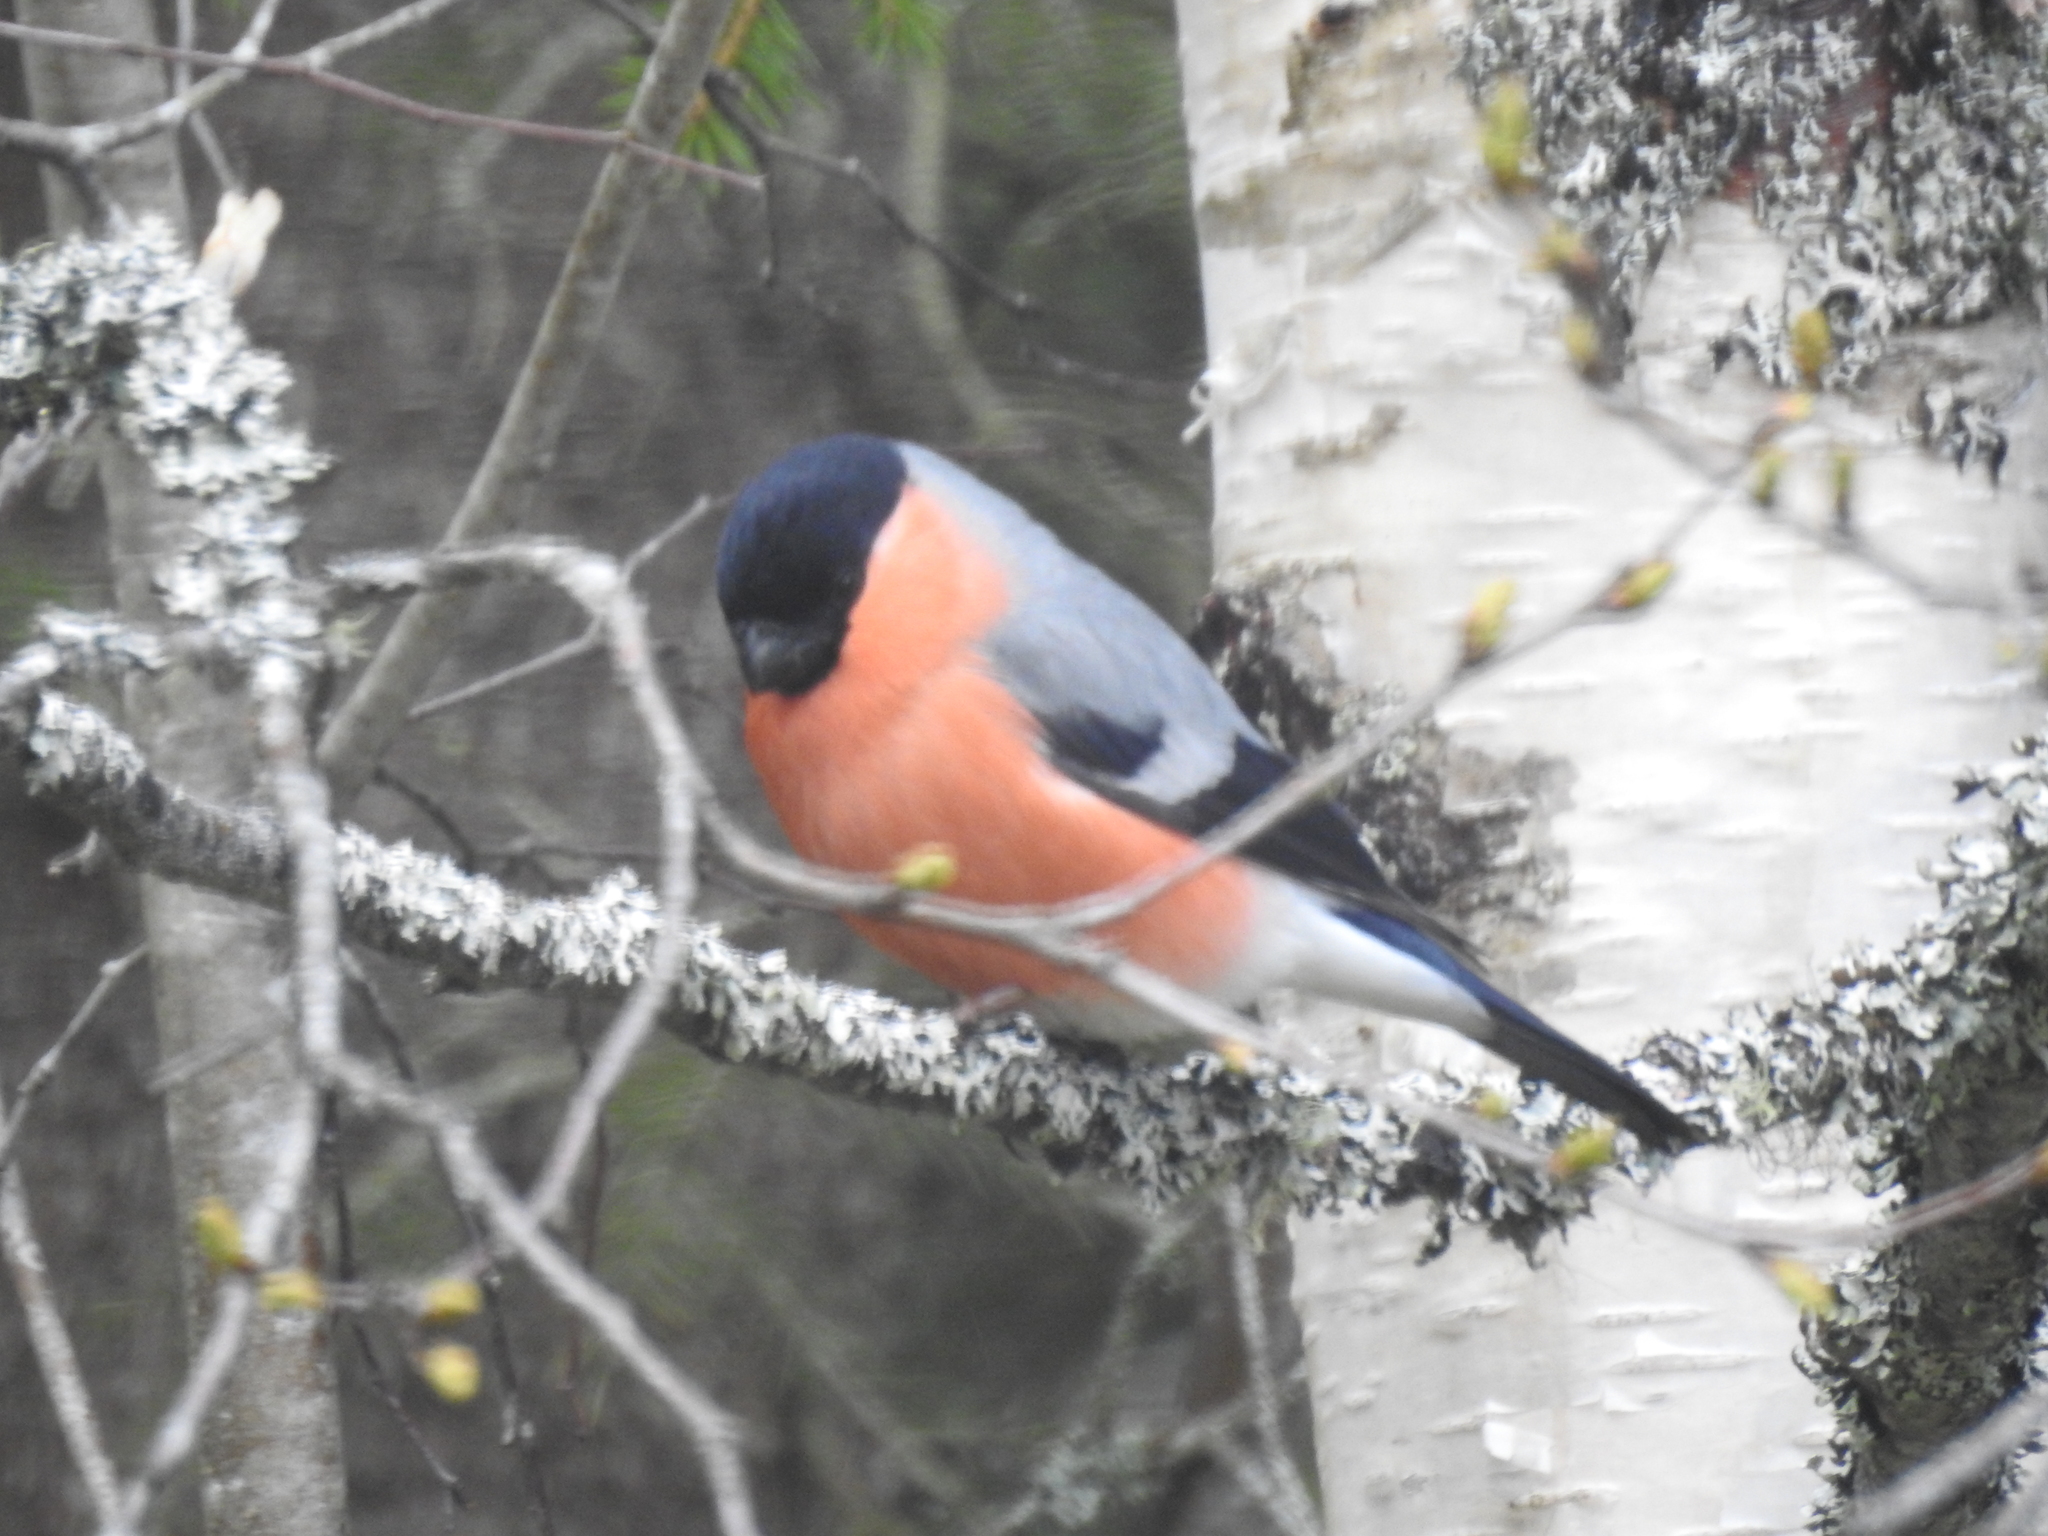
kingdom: Animalia
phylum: Chordata
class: Aves
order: Passeriformes
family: Fringillidae
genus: Pyrrhula
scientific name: Pyrrhula pyrrhula
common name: Eurasian bullfinch
